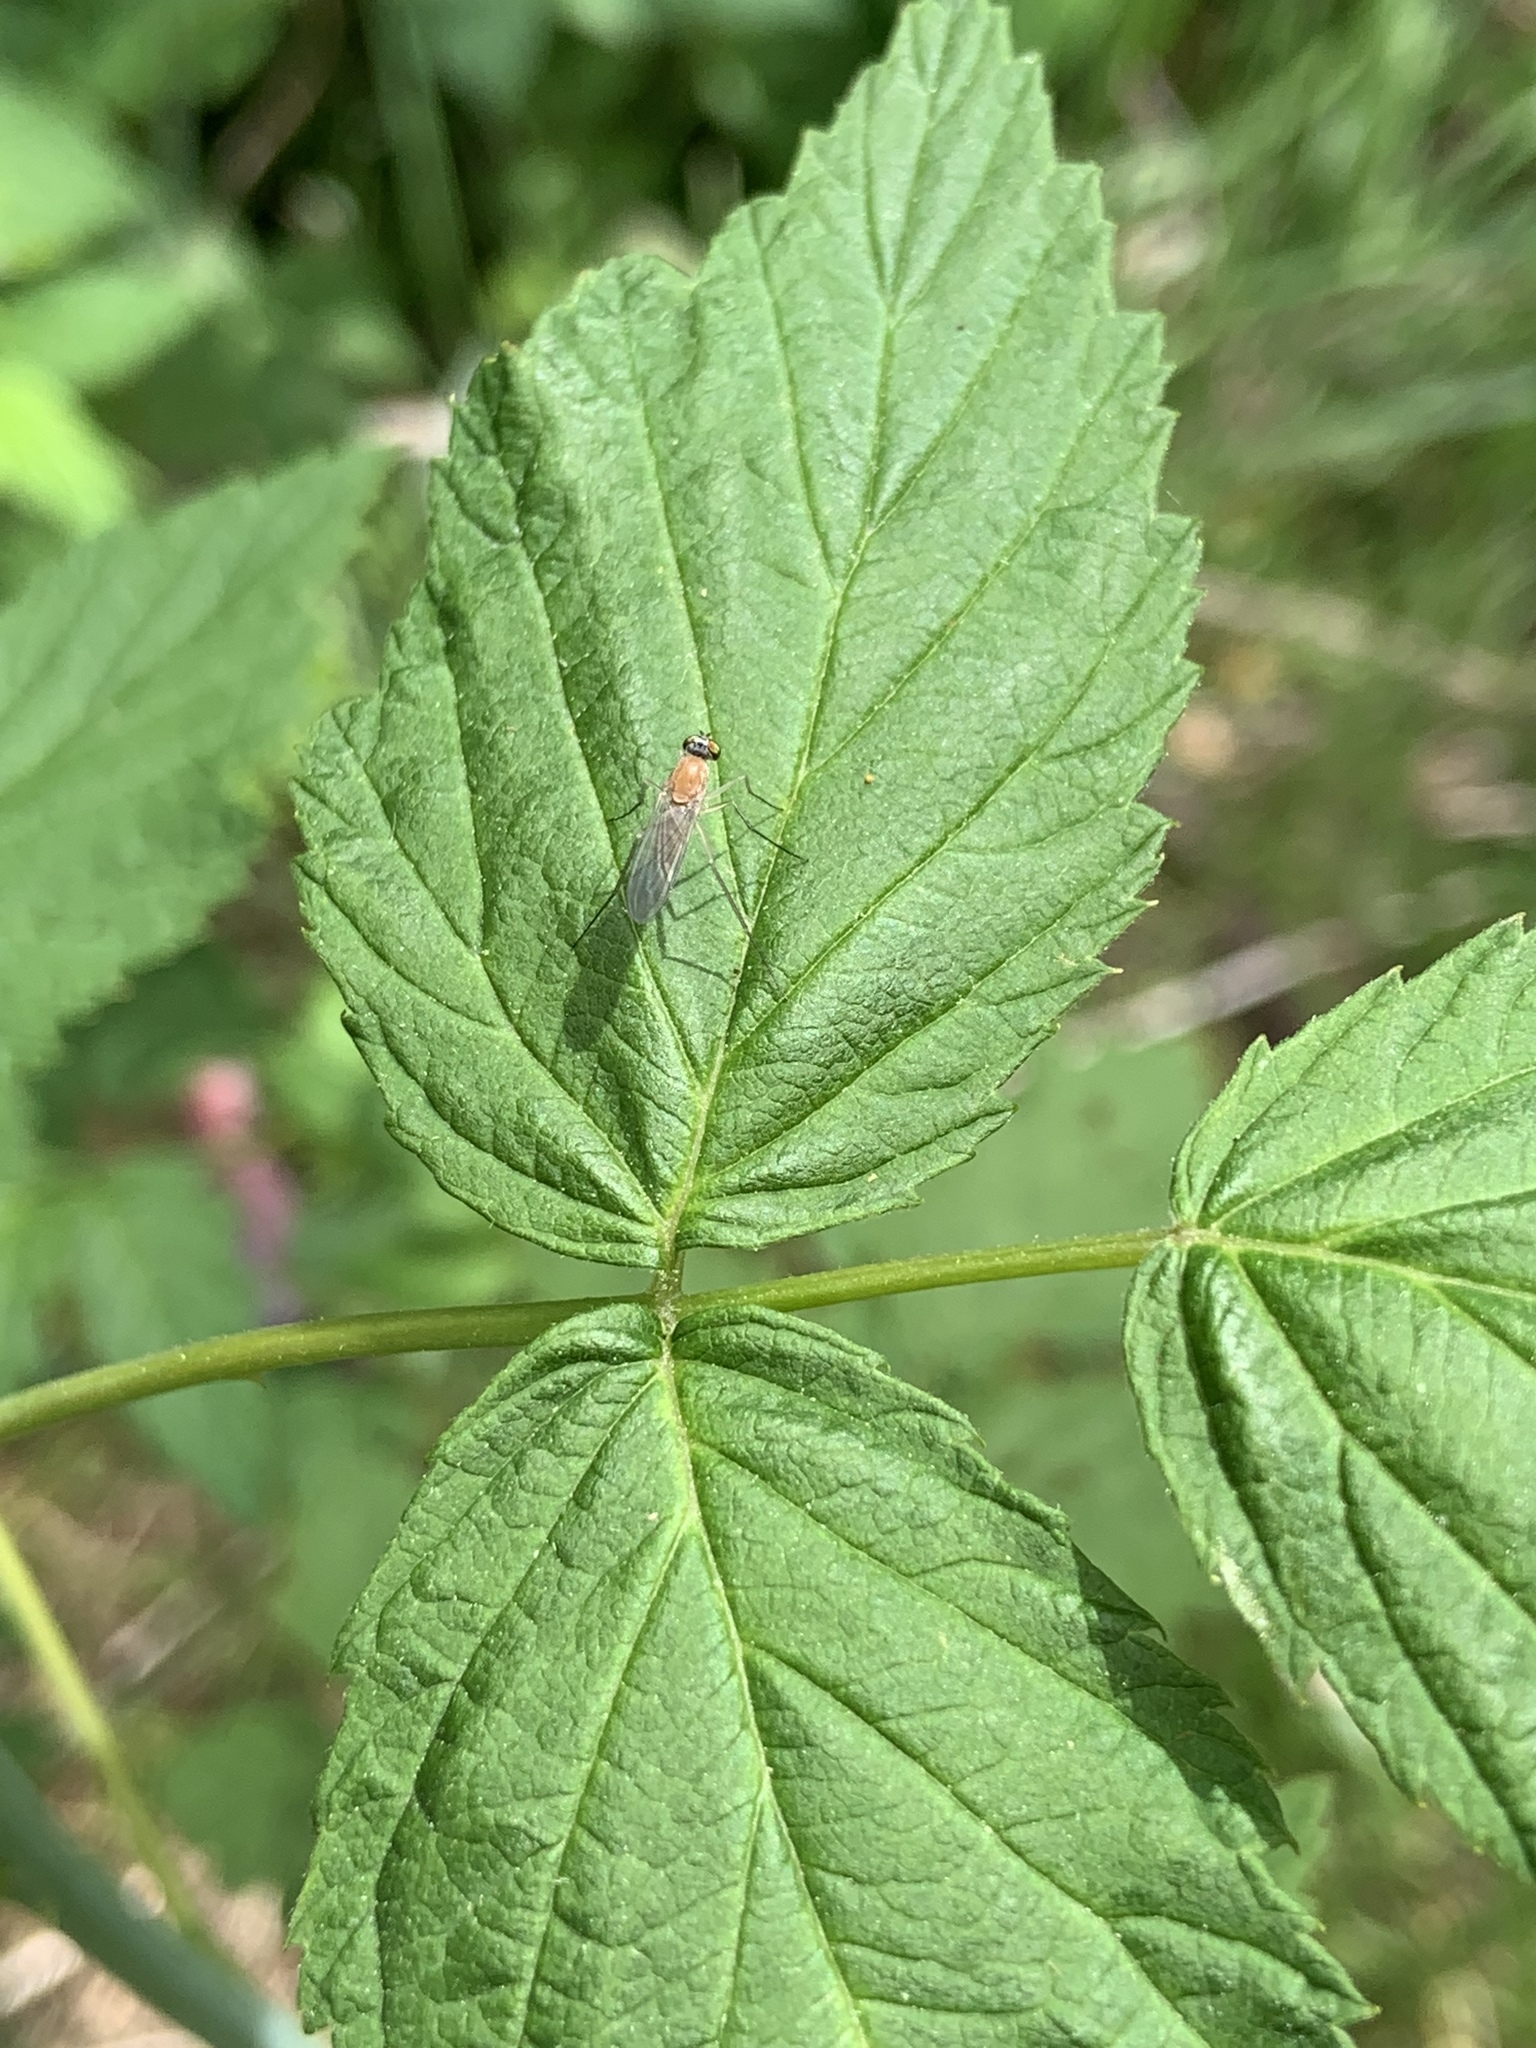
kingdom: Animalia
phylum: Arthropoda
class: Insecta
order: Diptera
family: Dolichopodidae
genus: Xanthochlorus
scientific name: Xanthochlorus helvinus
